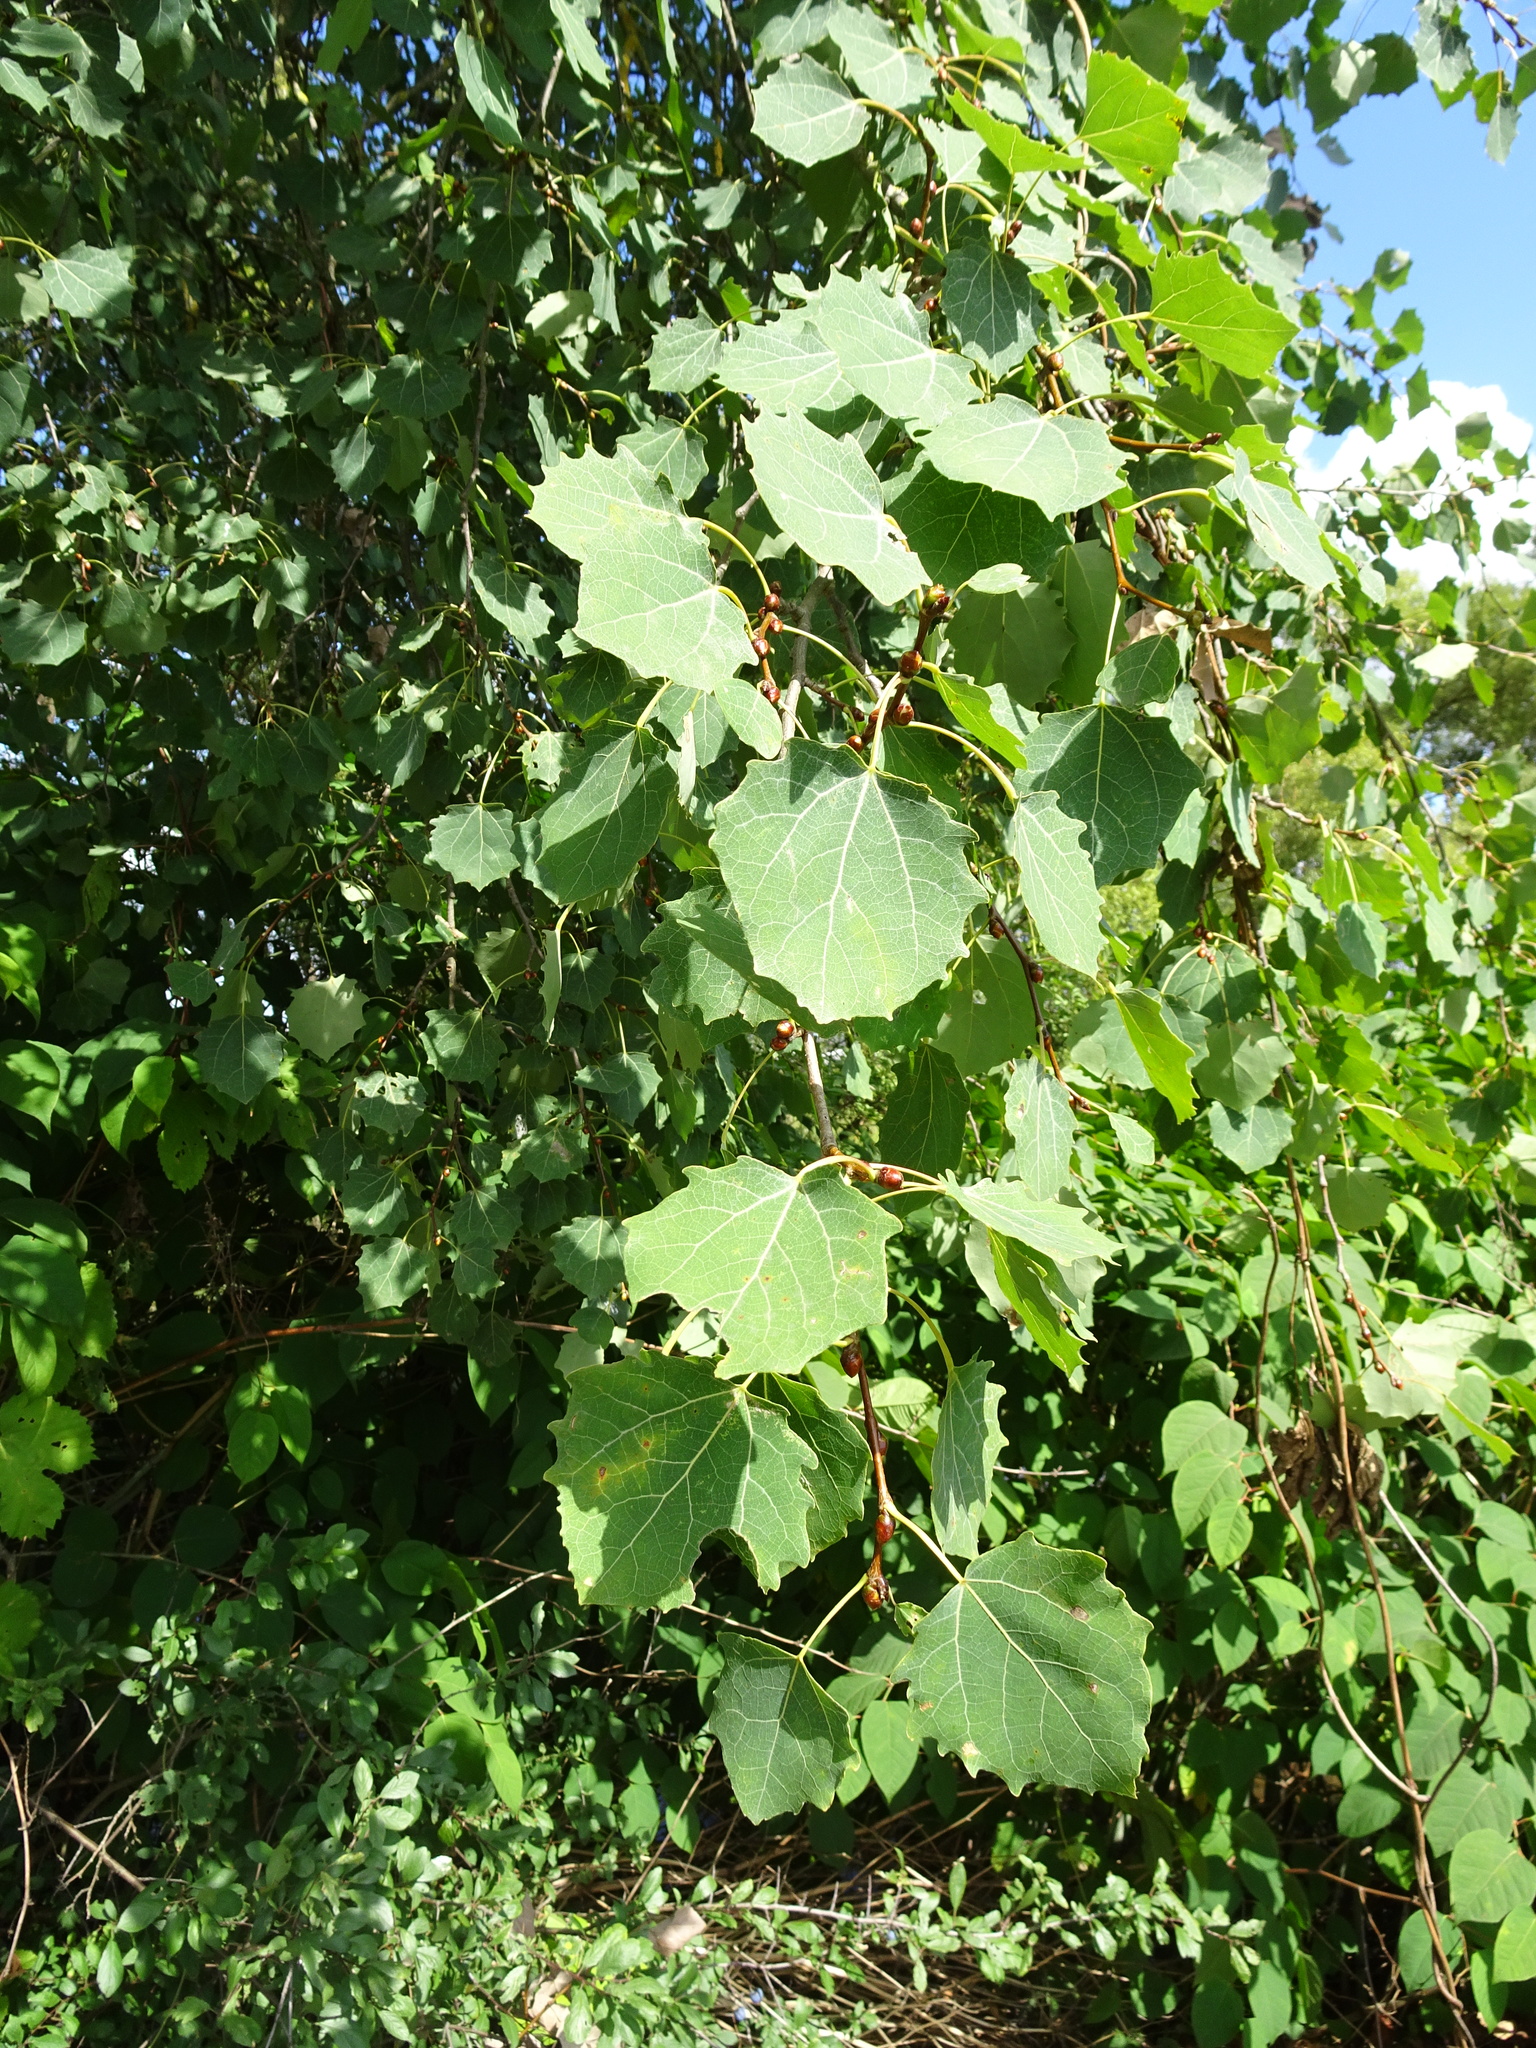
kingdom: Plantae
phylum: Tracheophyta
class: Magnoliopsida
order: Malpighiales
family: Salicaceae
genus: Populus
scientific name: Populus tremula
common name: European aspen
